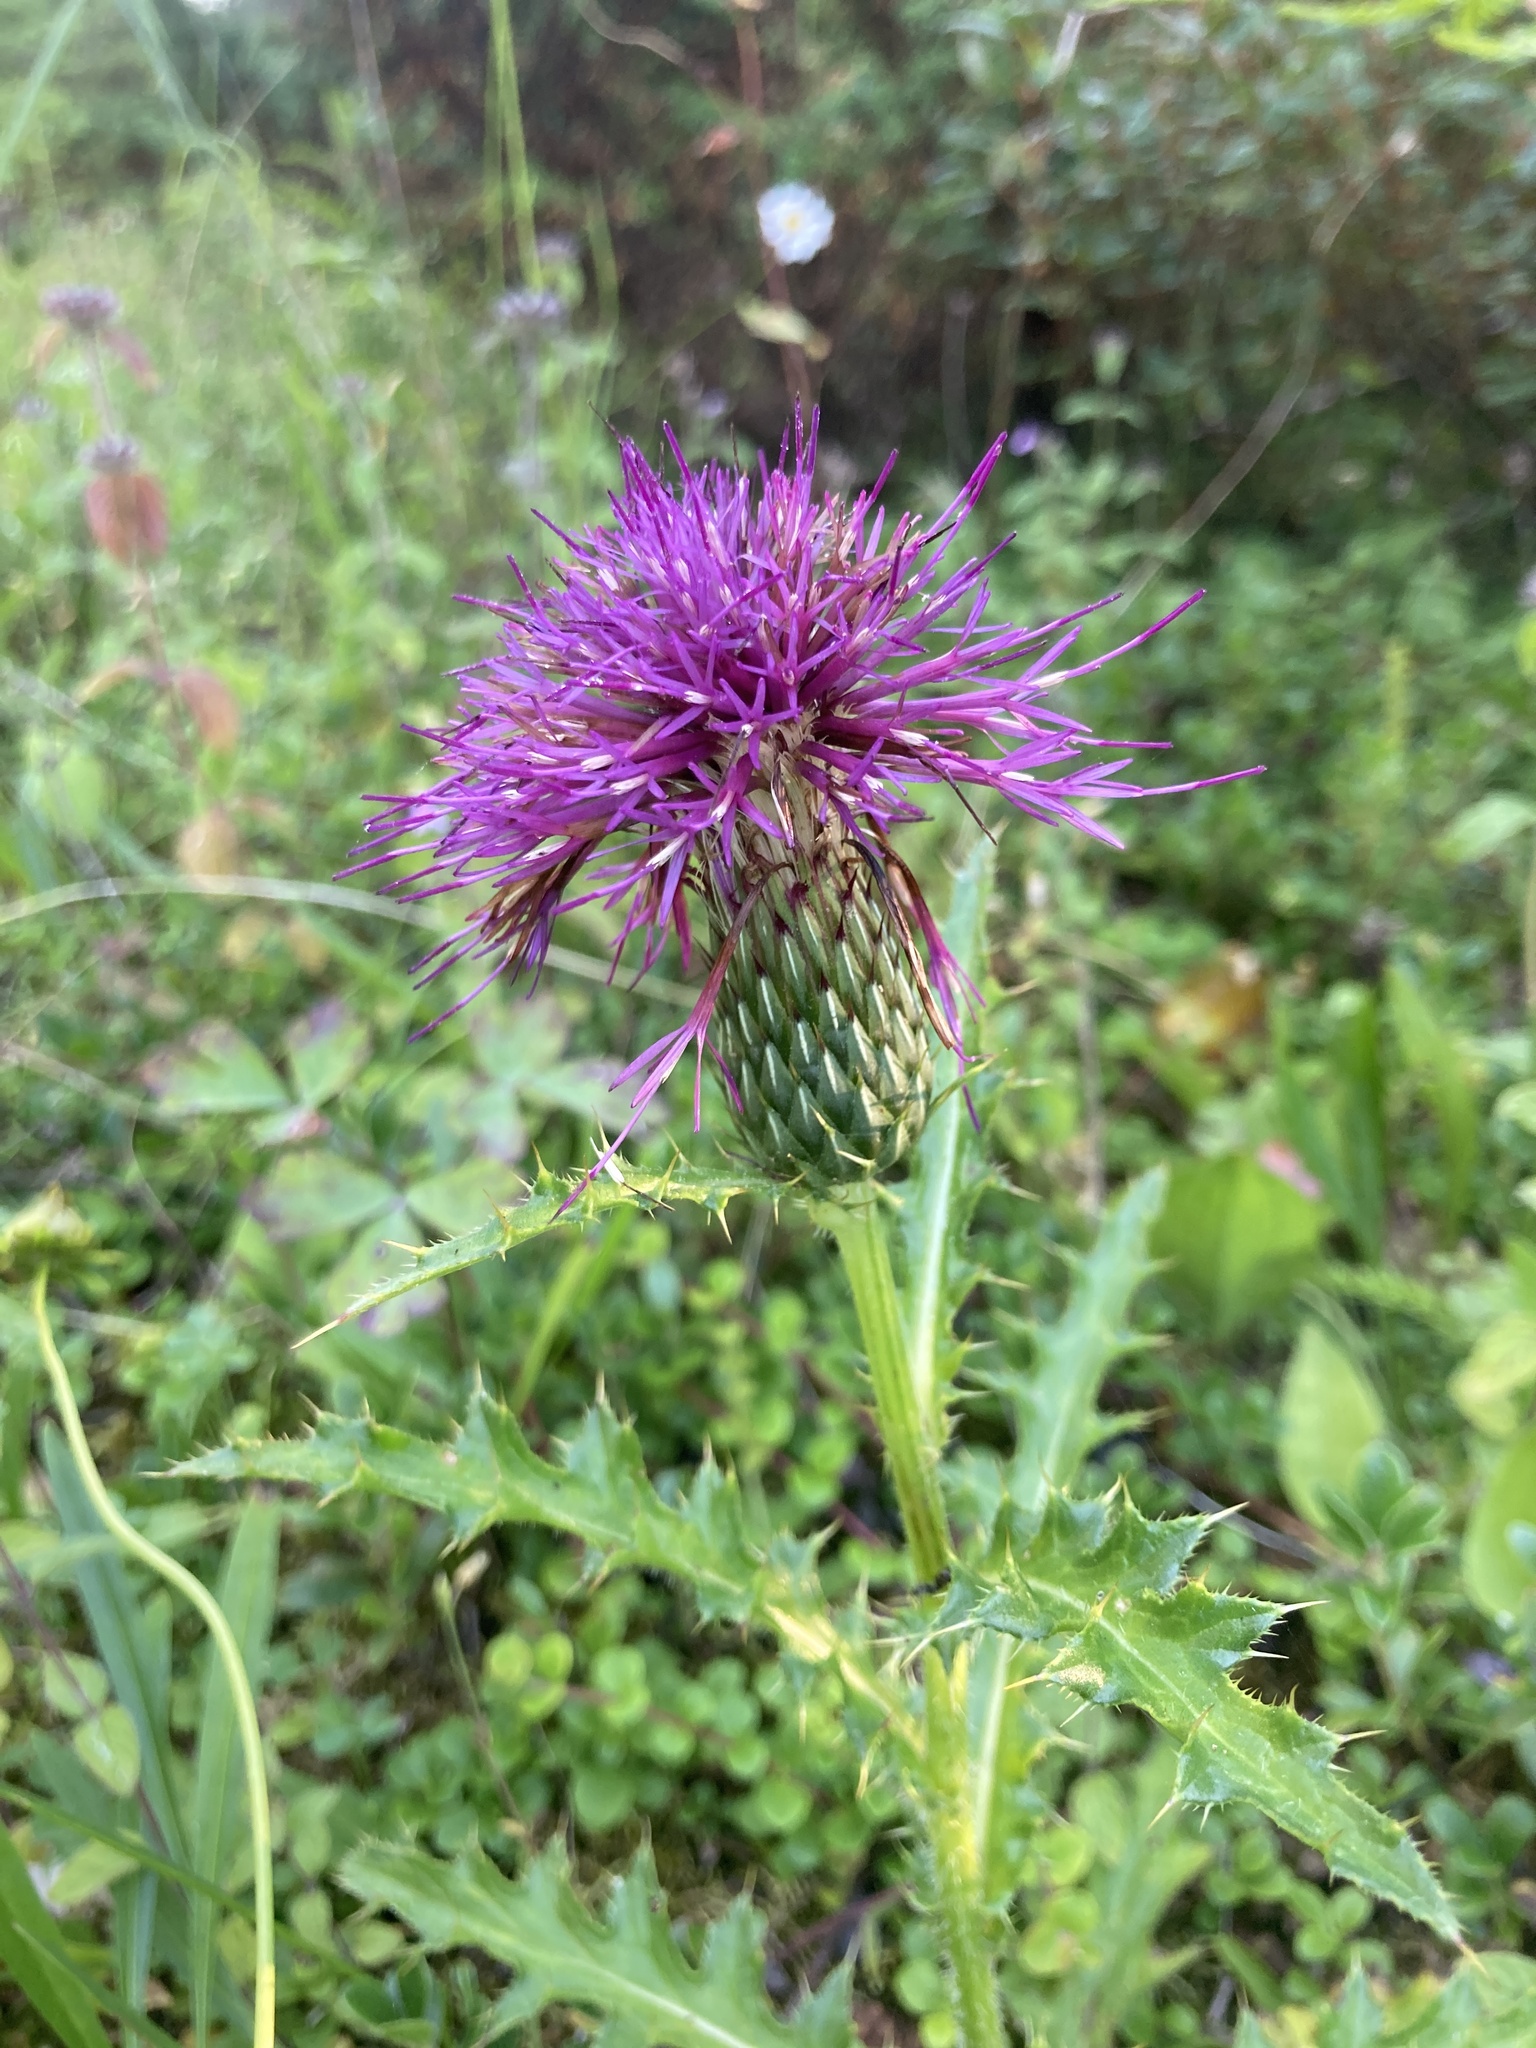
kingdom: Plantae
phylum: Tracheophyta
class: Magnoliopsida
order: Asterales
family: Asteraceae
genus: Cirsium
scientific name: Cirsium pumilum
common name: Pasture thistle
